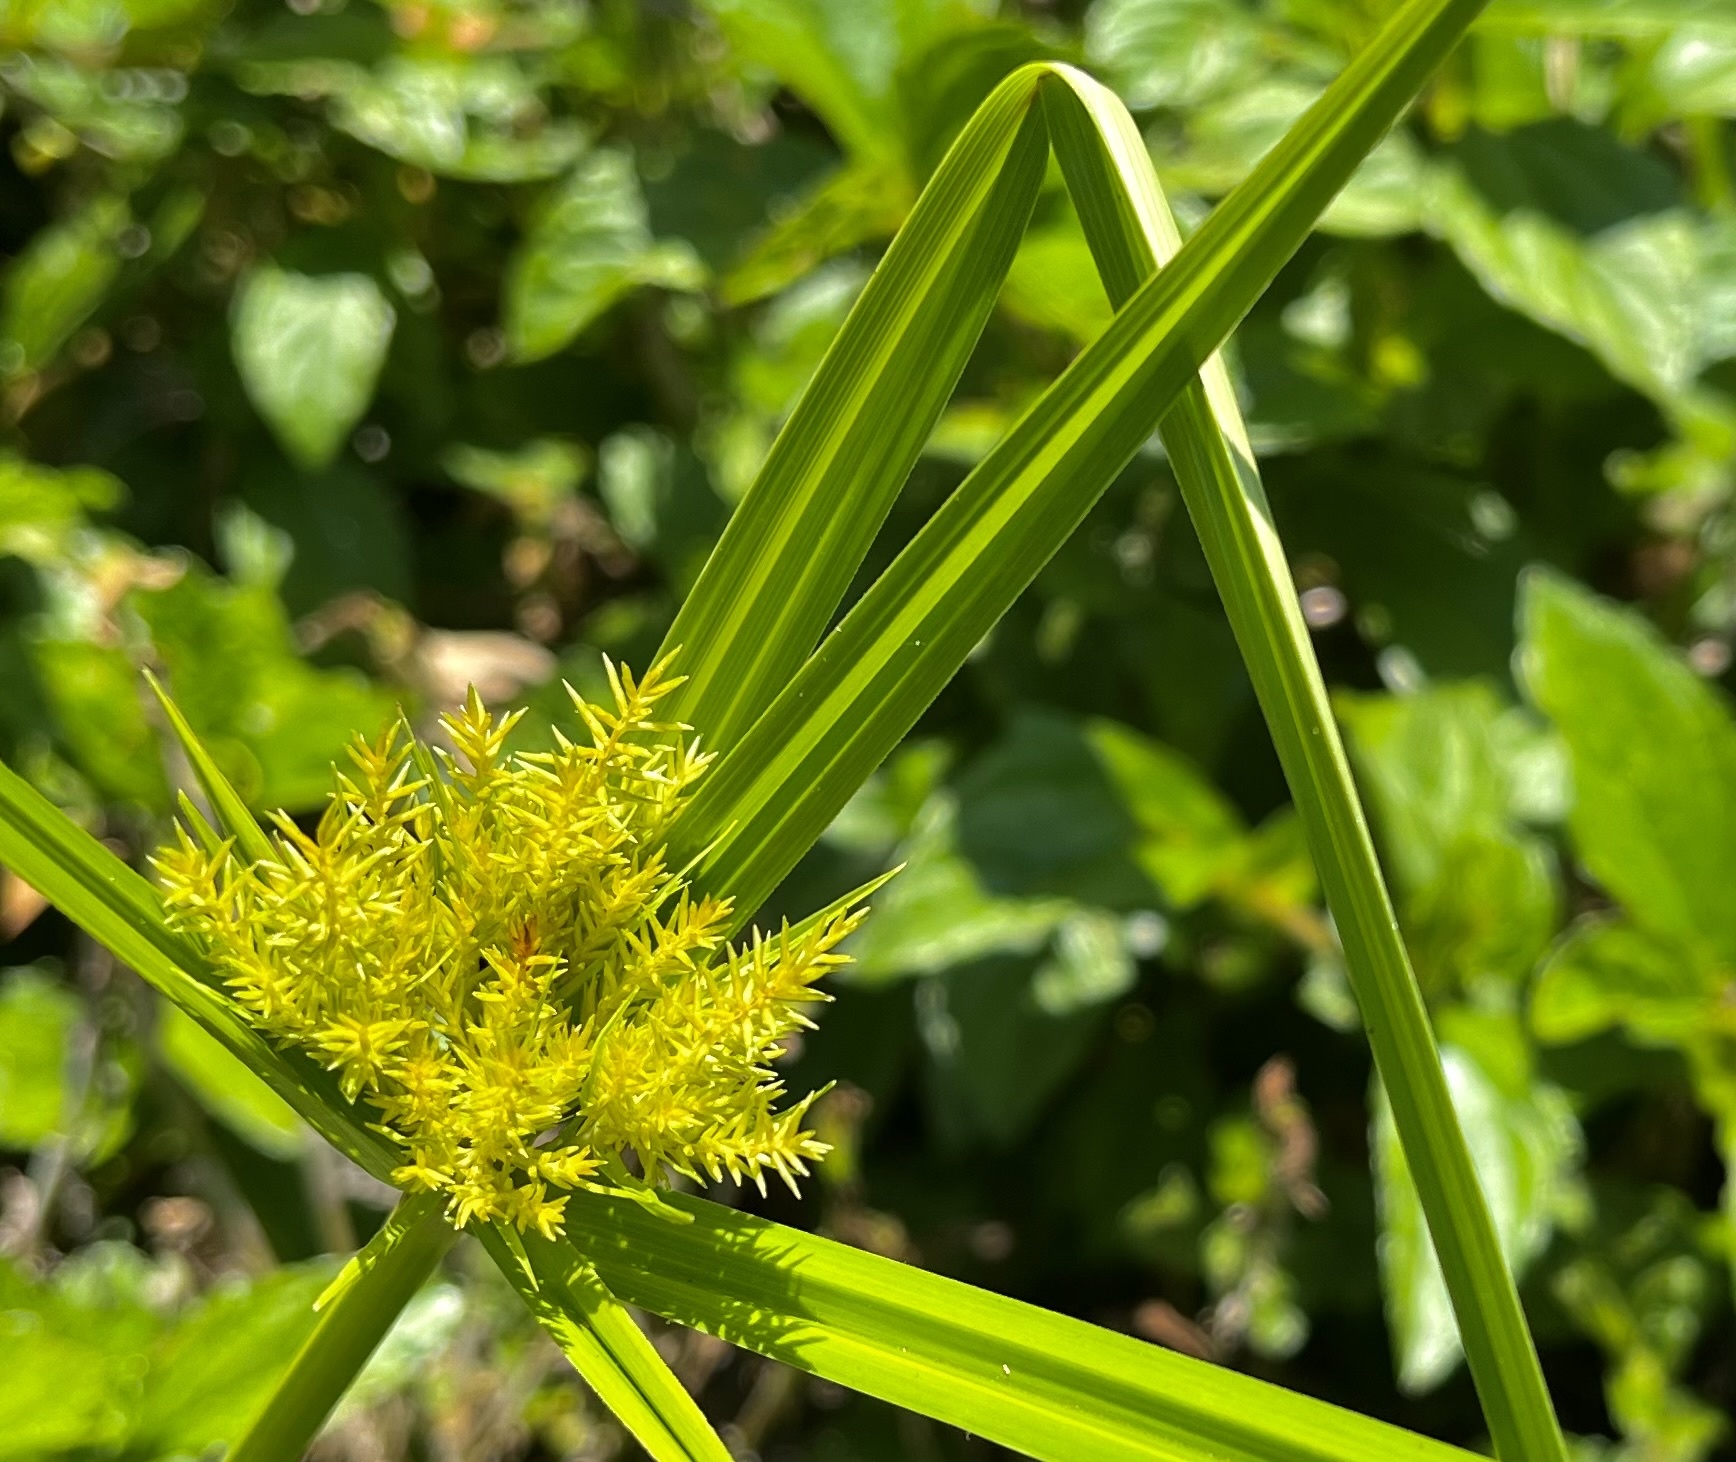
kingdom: Plantae
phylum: Tracheophyta
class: Liliopsida
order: Poales
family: Cyperaceae
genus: Cyperus
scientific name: Cyperus odoratus
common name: Fragrant flatsedge
